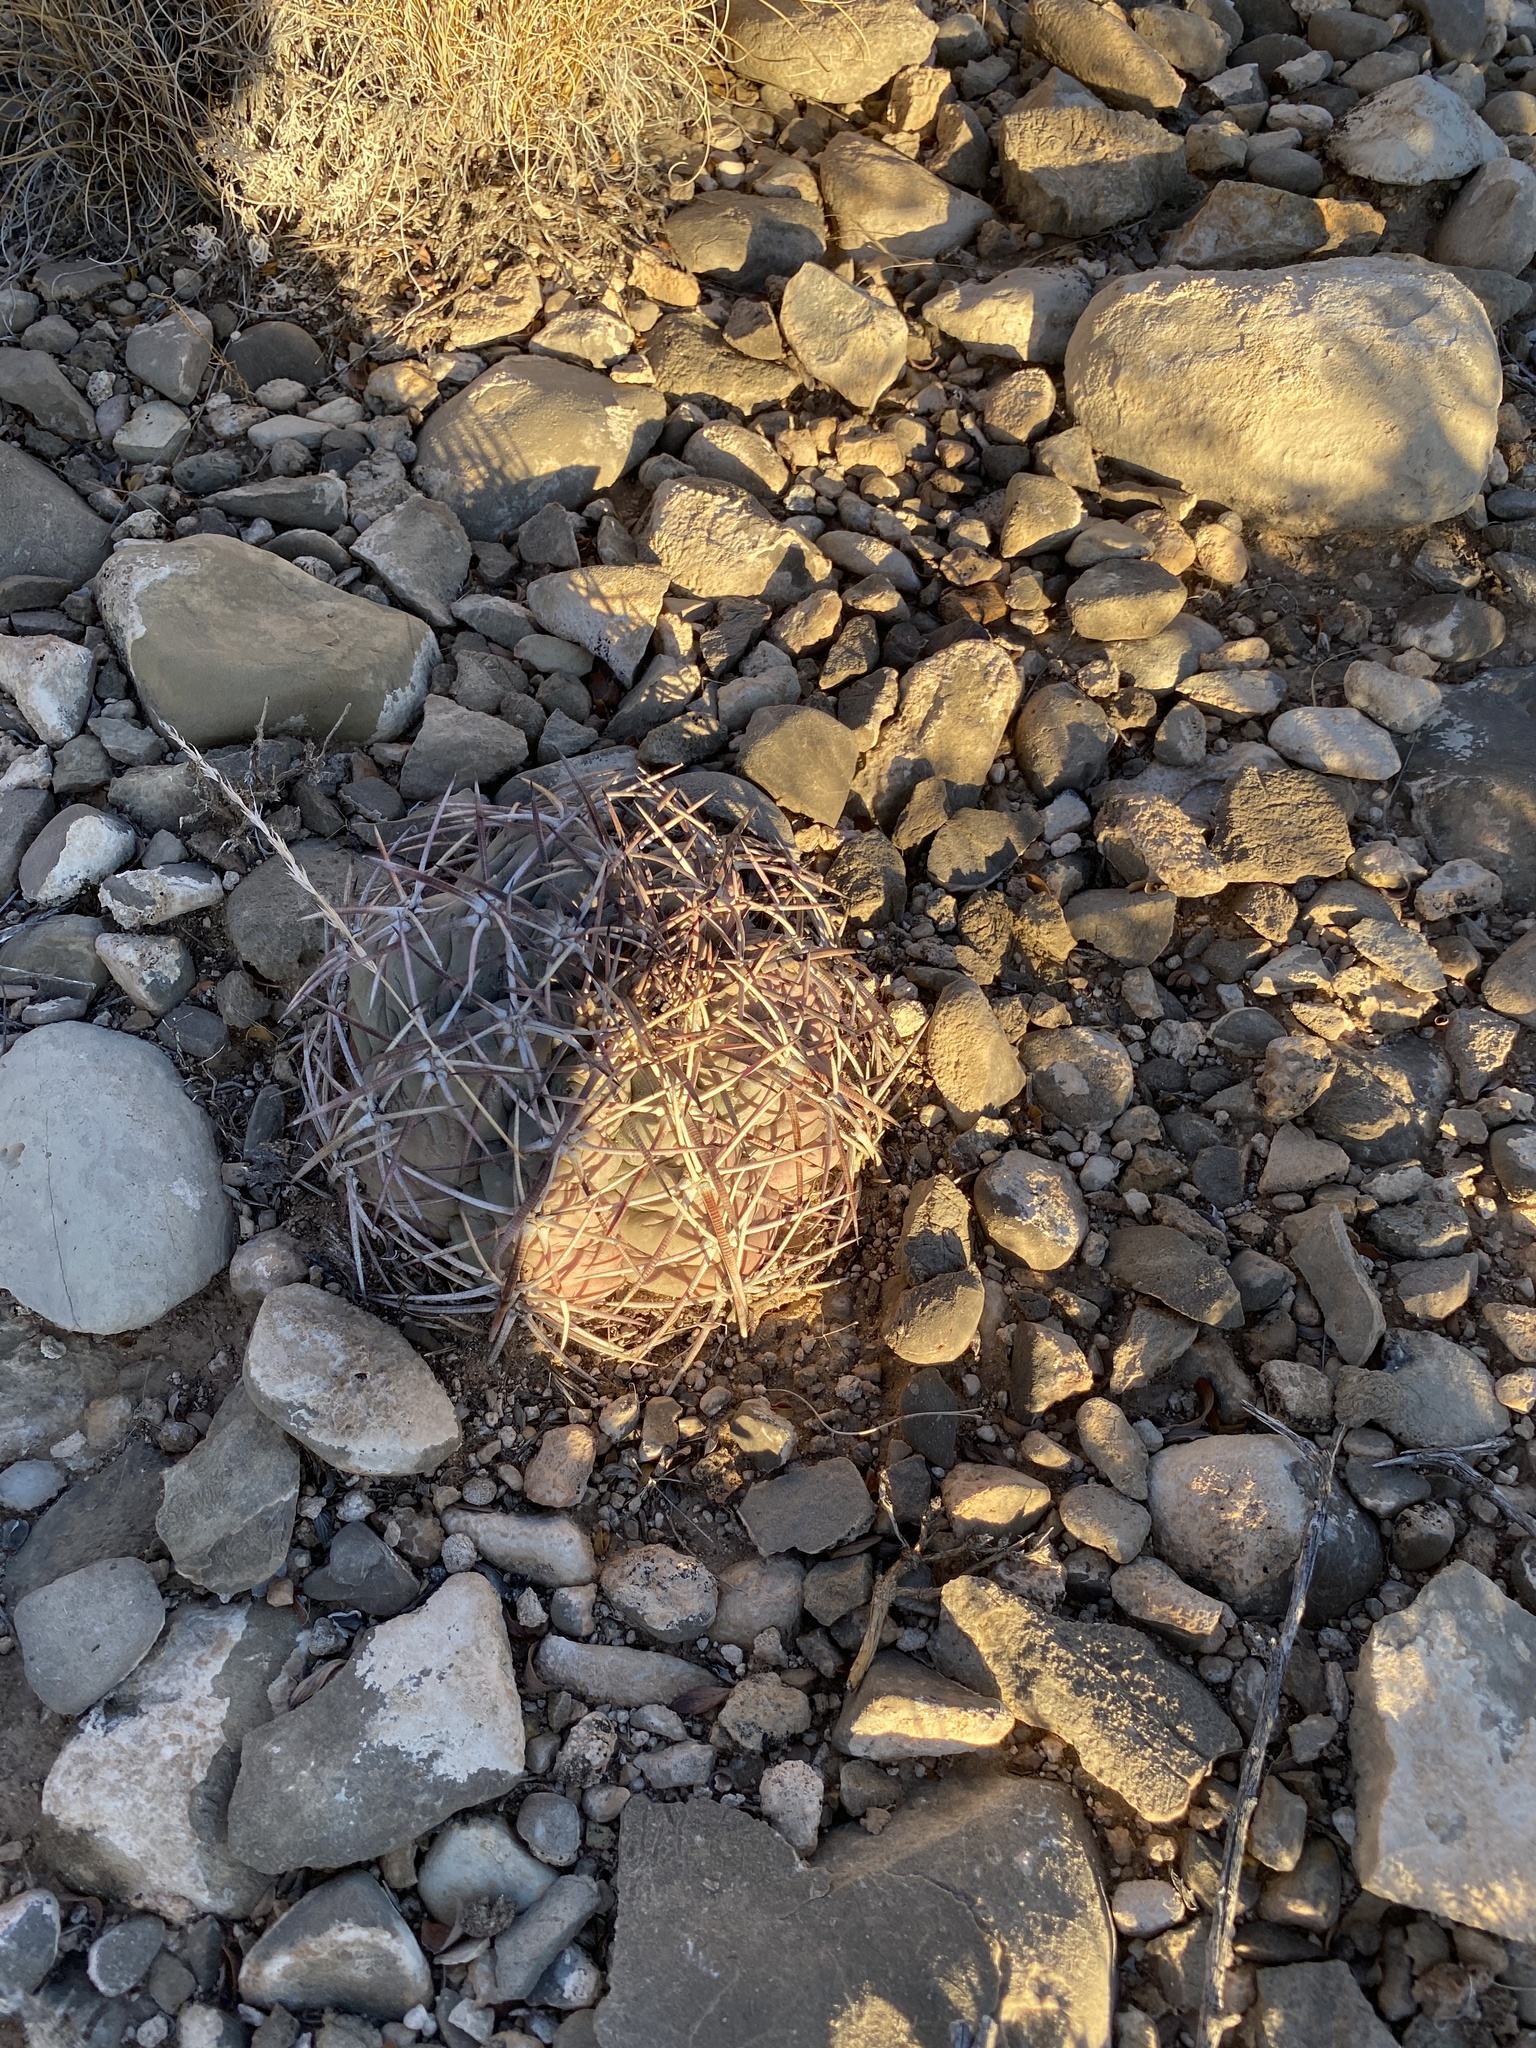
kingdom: Plantae
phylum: Tracheophyta
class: Magnoliopsida
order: Caryophyllales
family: Cactaceae
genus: Echinocactus
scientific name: Echinocactus horizonthalonius
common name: Devilshead
